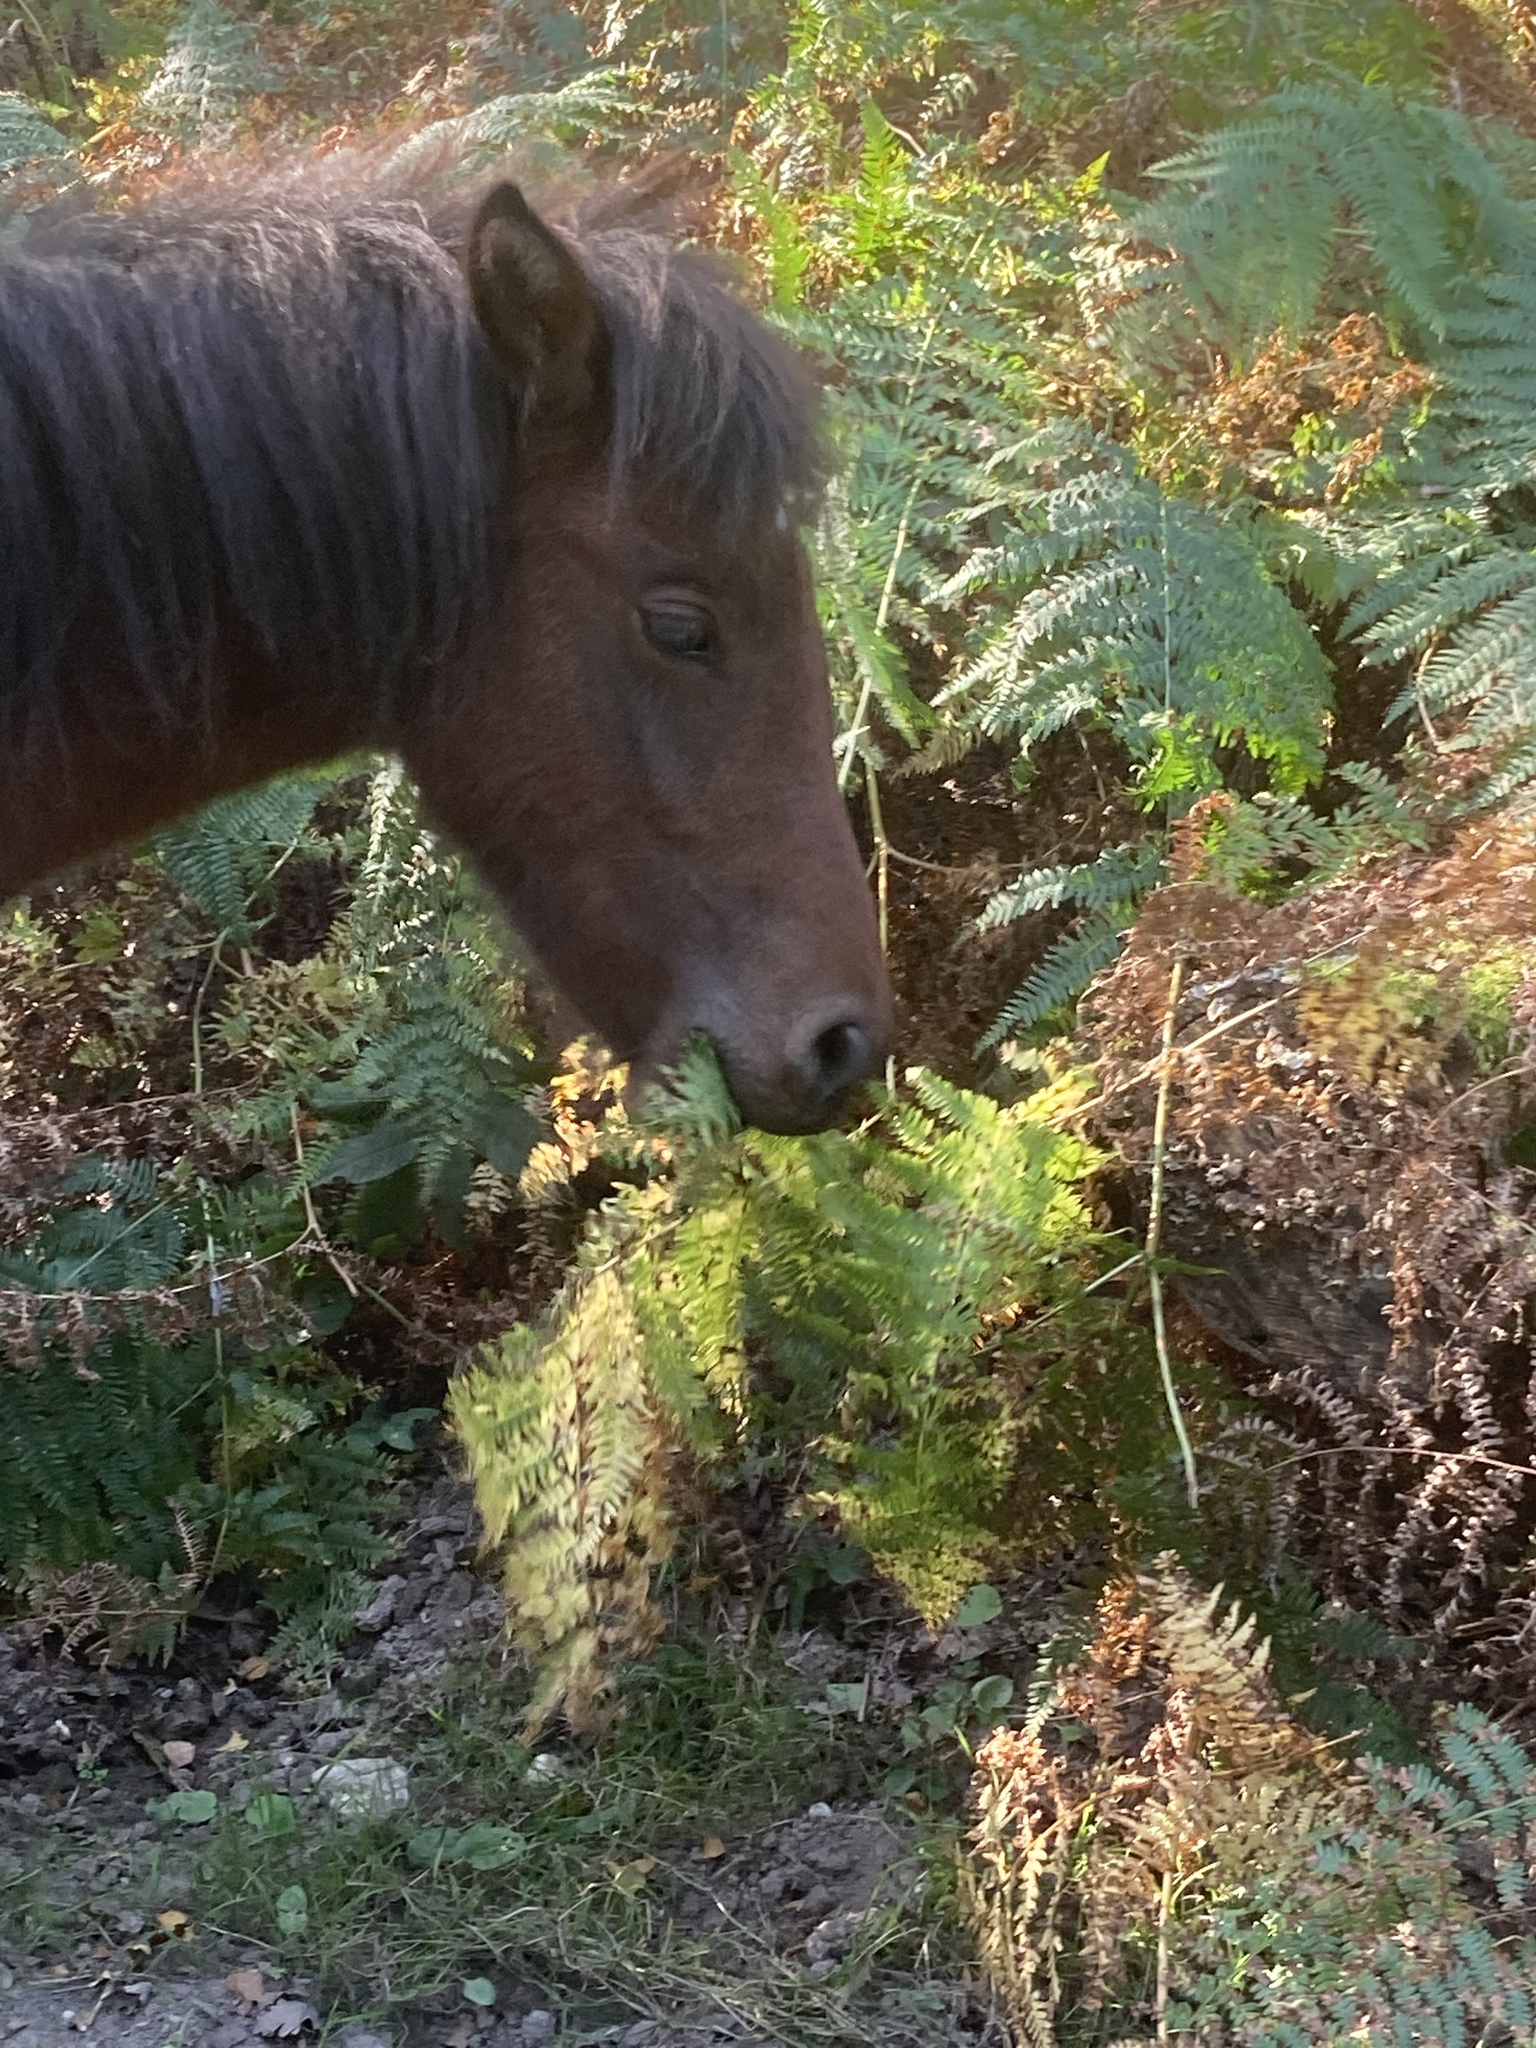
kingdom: Plantae
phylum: Tracheophyta
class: Polypodiopsida
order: Polypodiales
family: Dennstaedtiaceae
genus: Pteridium
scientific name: Pteridium aquilinum
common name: Bracken
